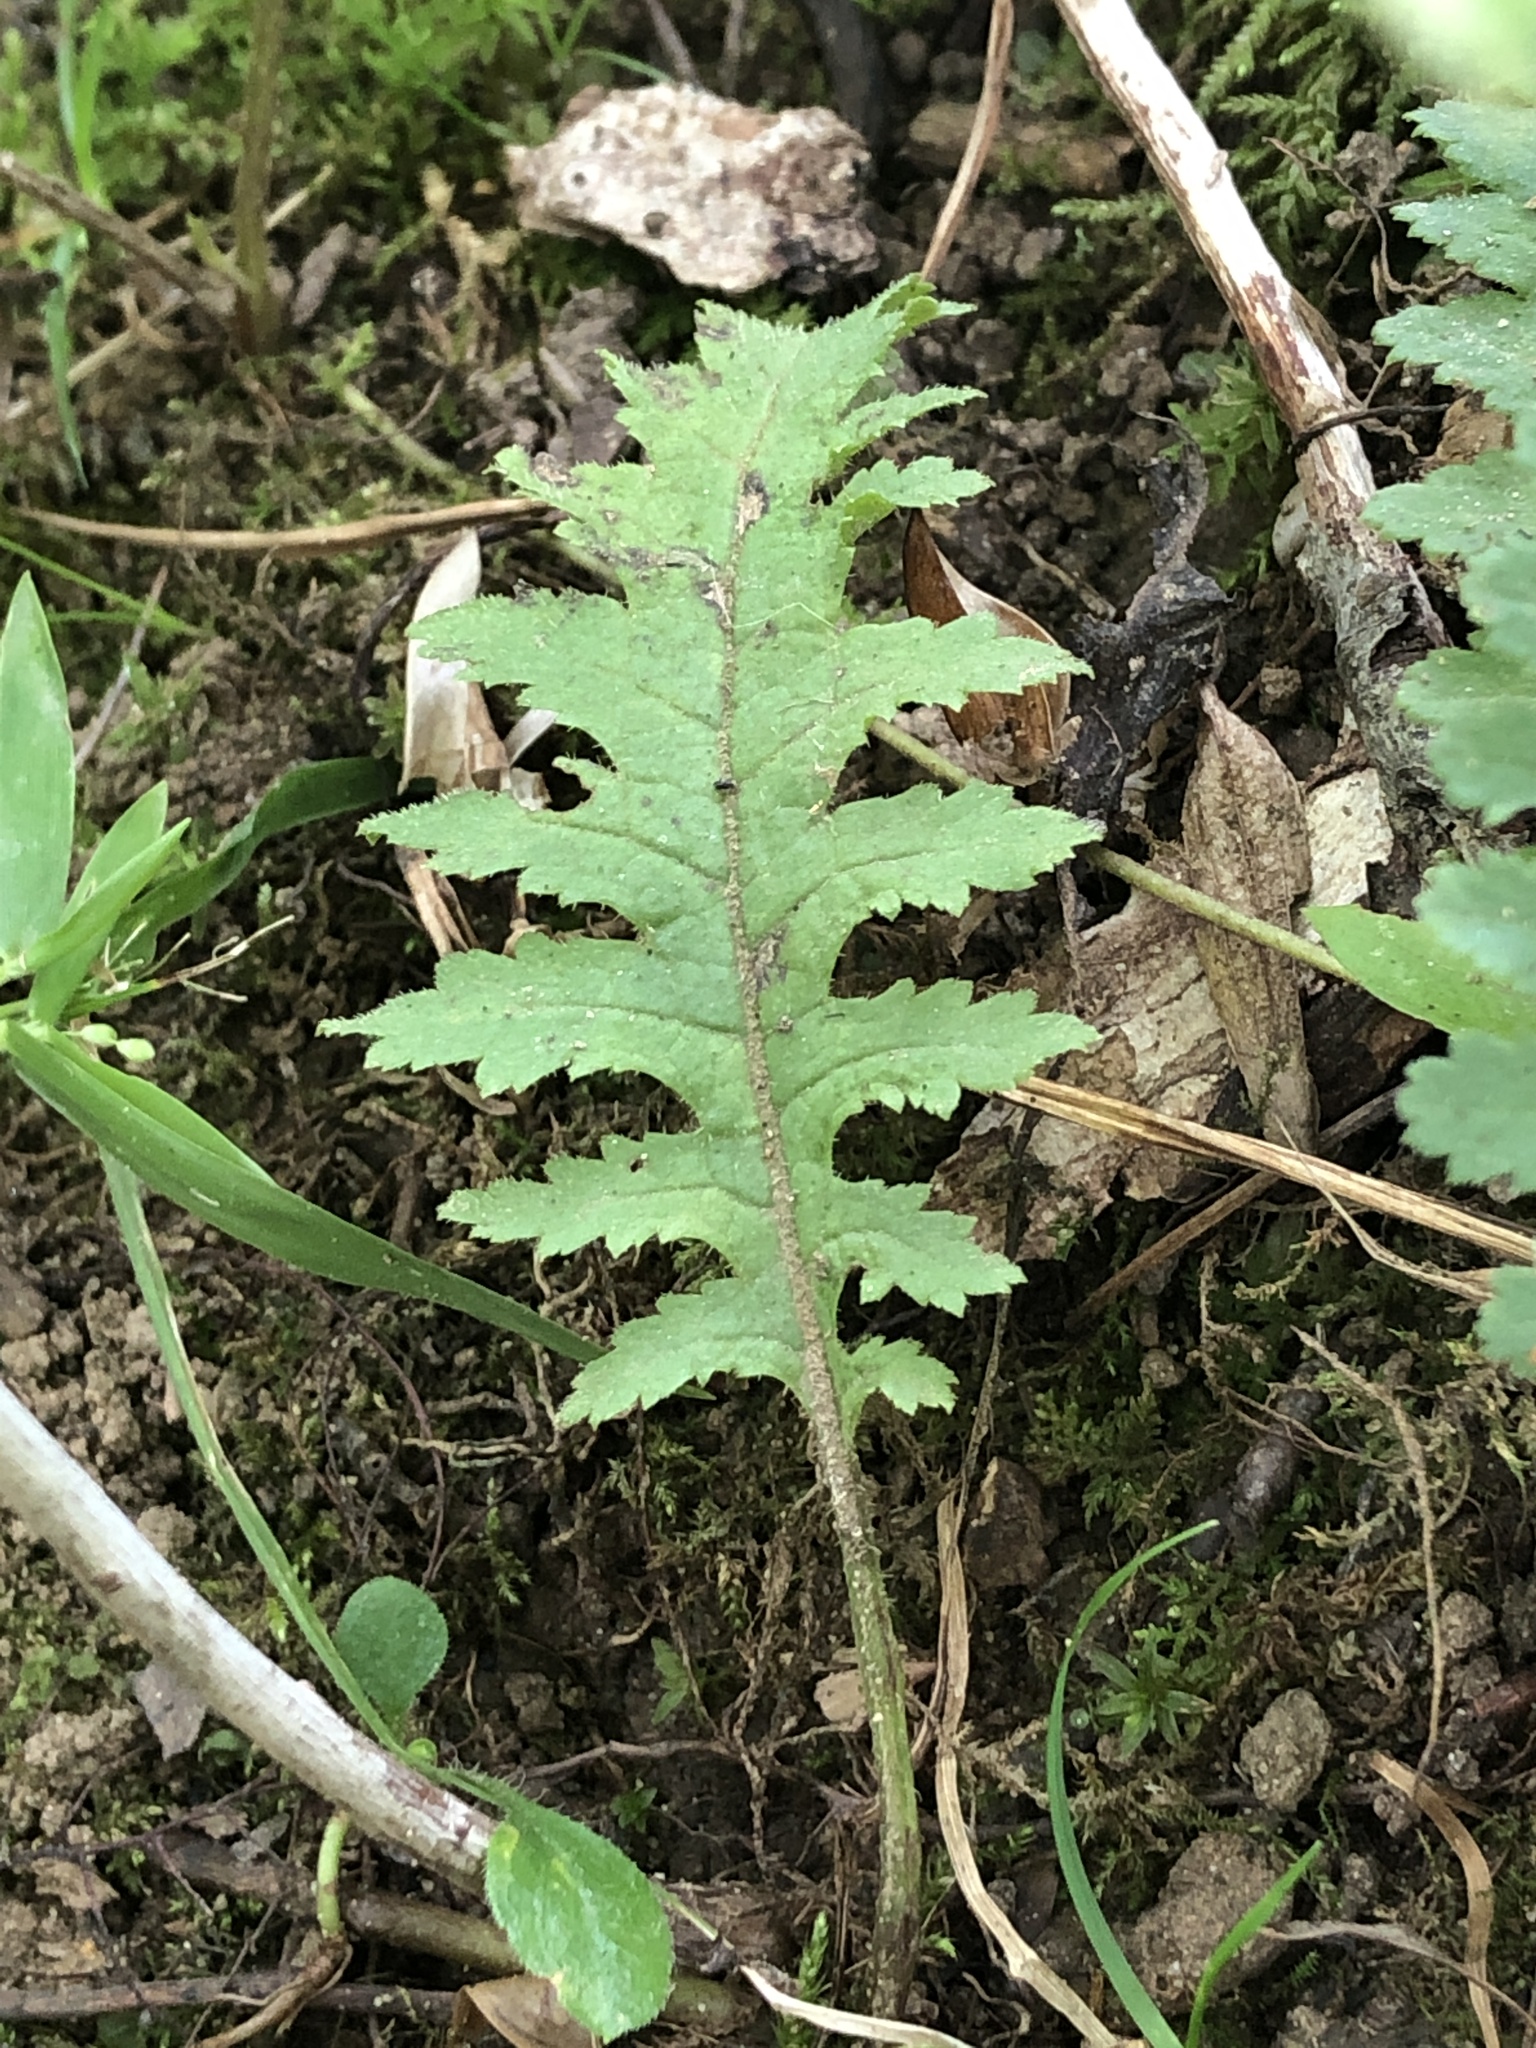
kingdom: Plantae
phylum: Tracheophyta
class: Magnoliopsida
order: Lamiales
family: Orobanchaceae
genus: Pedicularis
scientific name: Pedicularis canadensis
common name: Early lousewort
